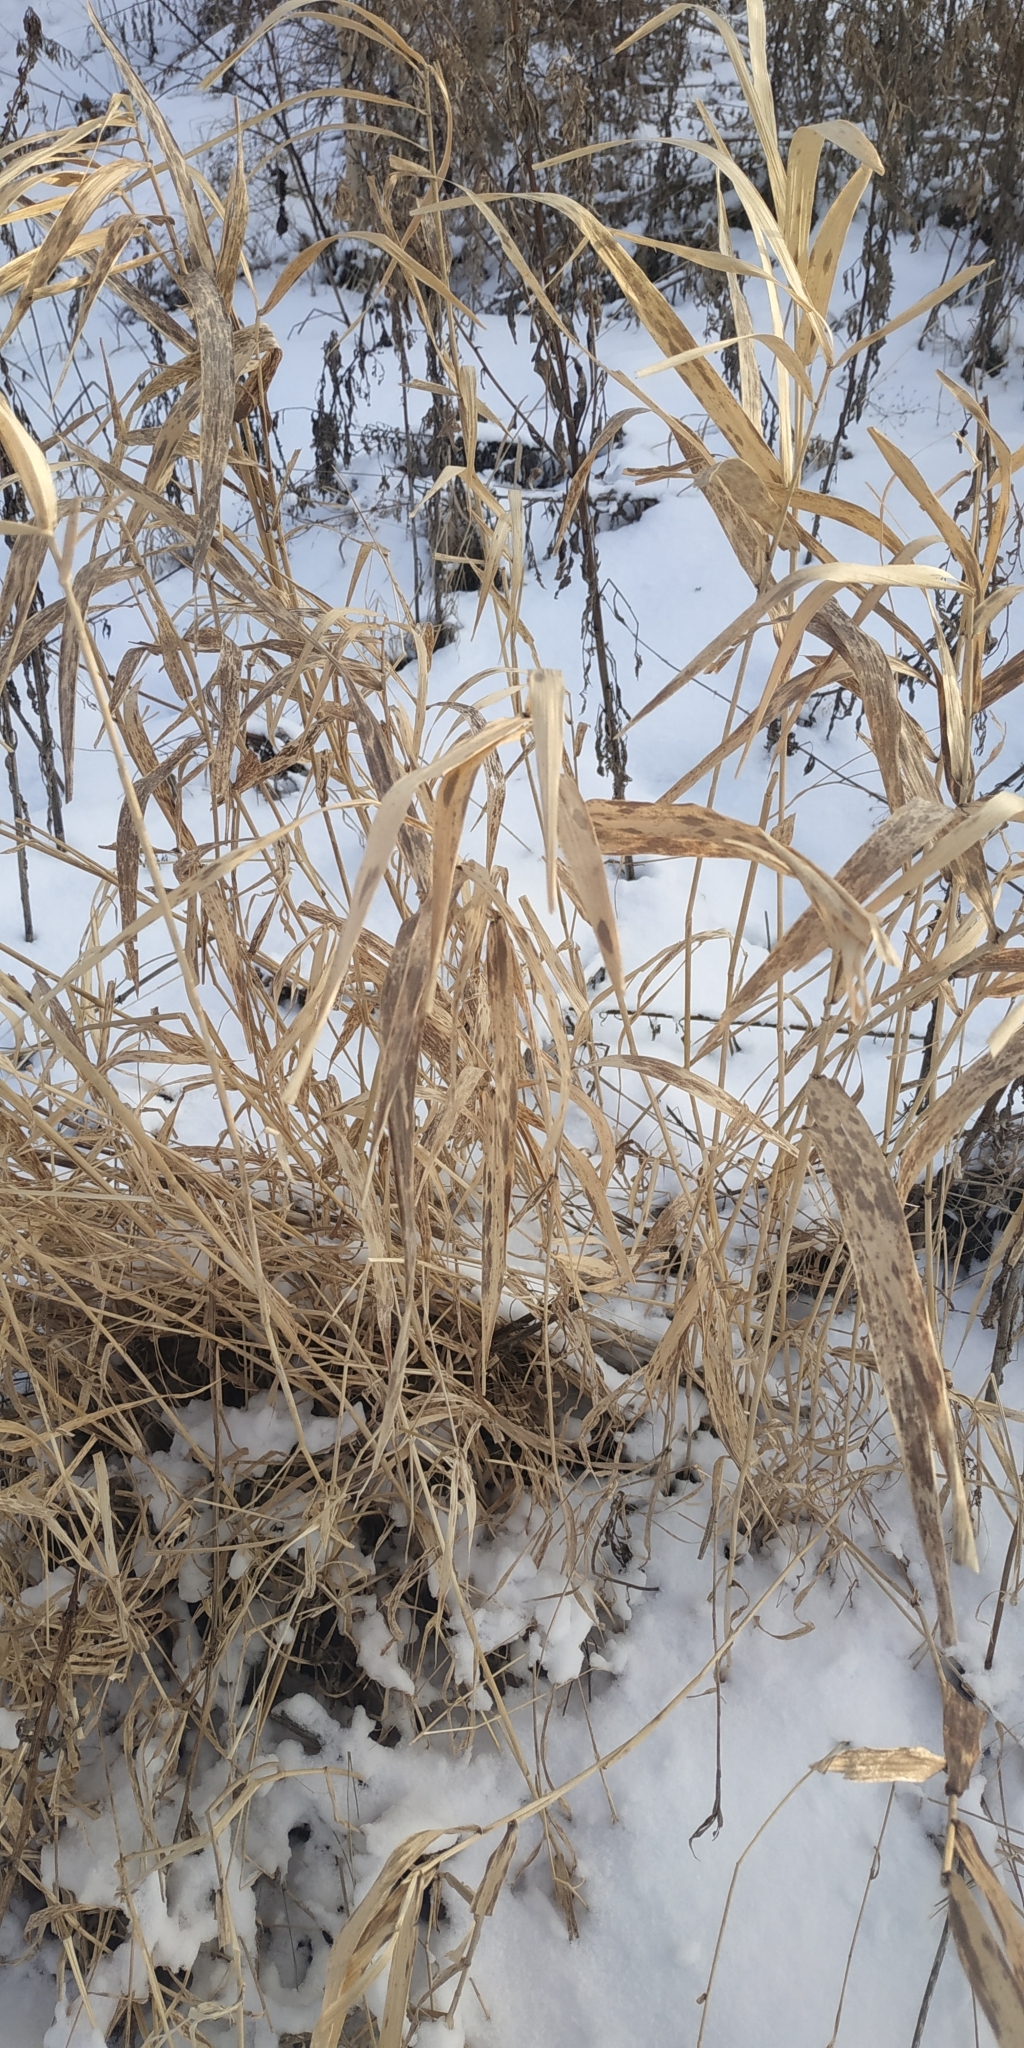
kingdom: Plantae
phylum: Tracheophyta
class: Liliopsida
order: Poales
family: Poaceae
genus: Phalaris
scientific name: Phalaris arundinacea
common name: Reed canary-grass
